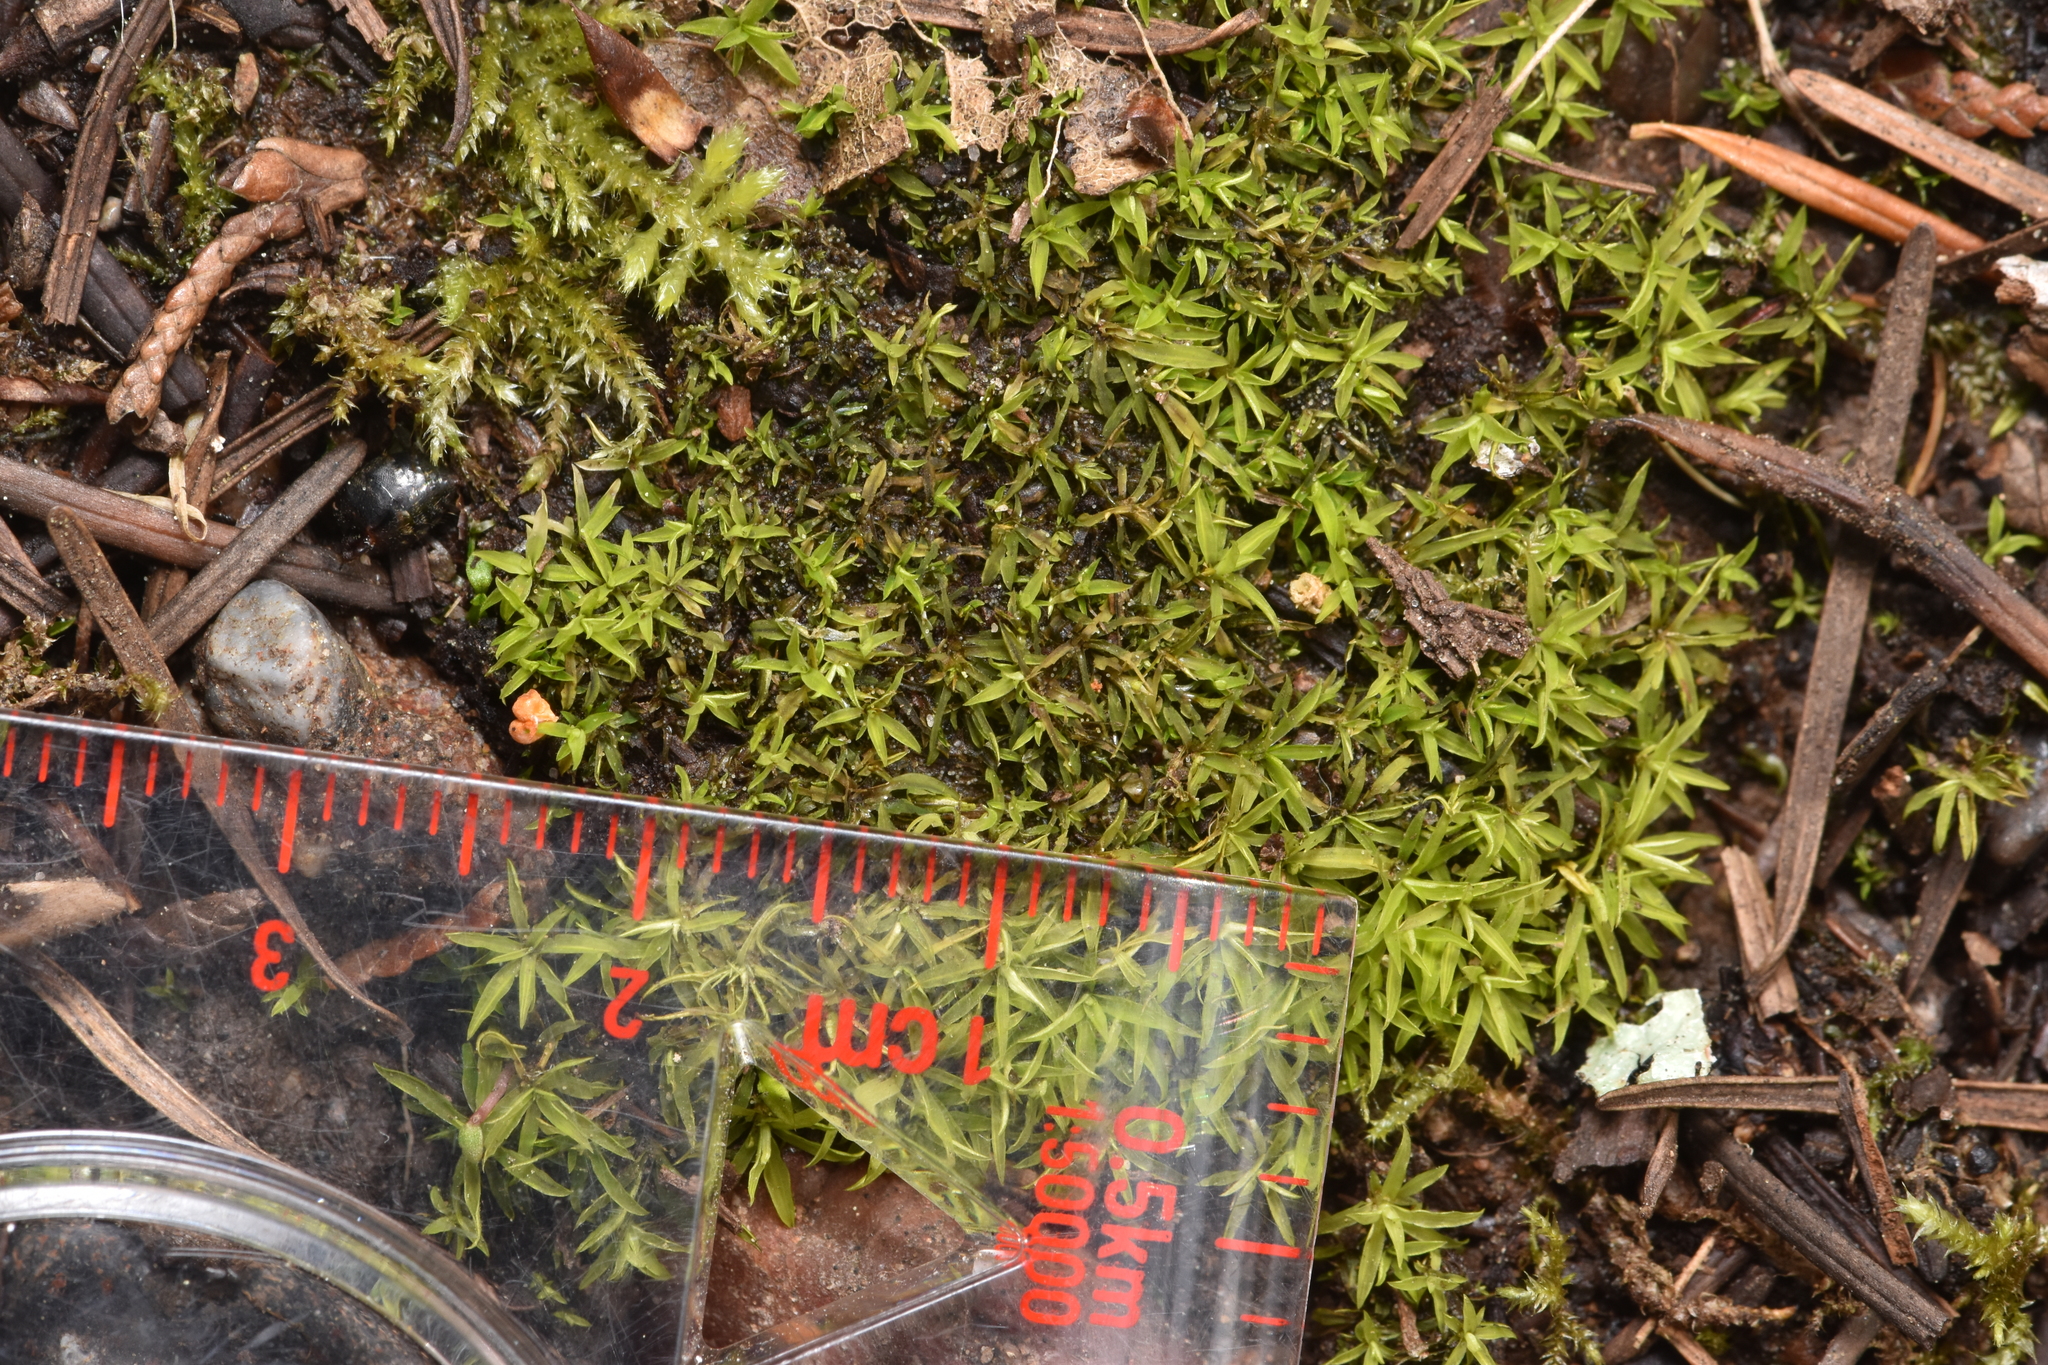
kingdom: Plantae
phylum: Bryophyta
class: Bryopsida
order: Scouleriales
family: Timmiellaceae
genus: Timmiella
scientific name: Timmiella crassinervis
